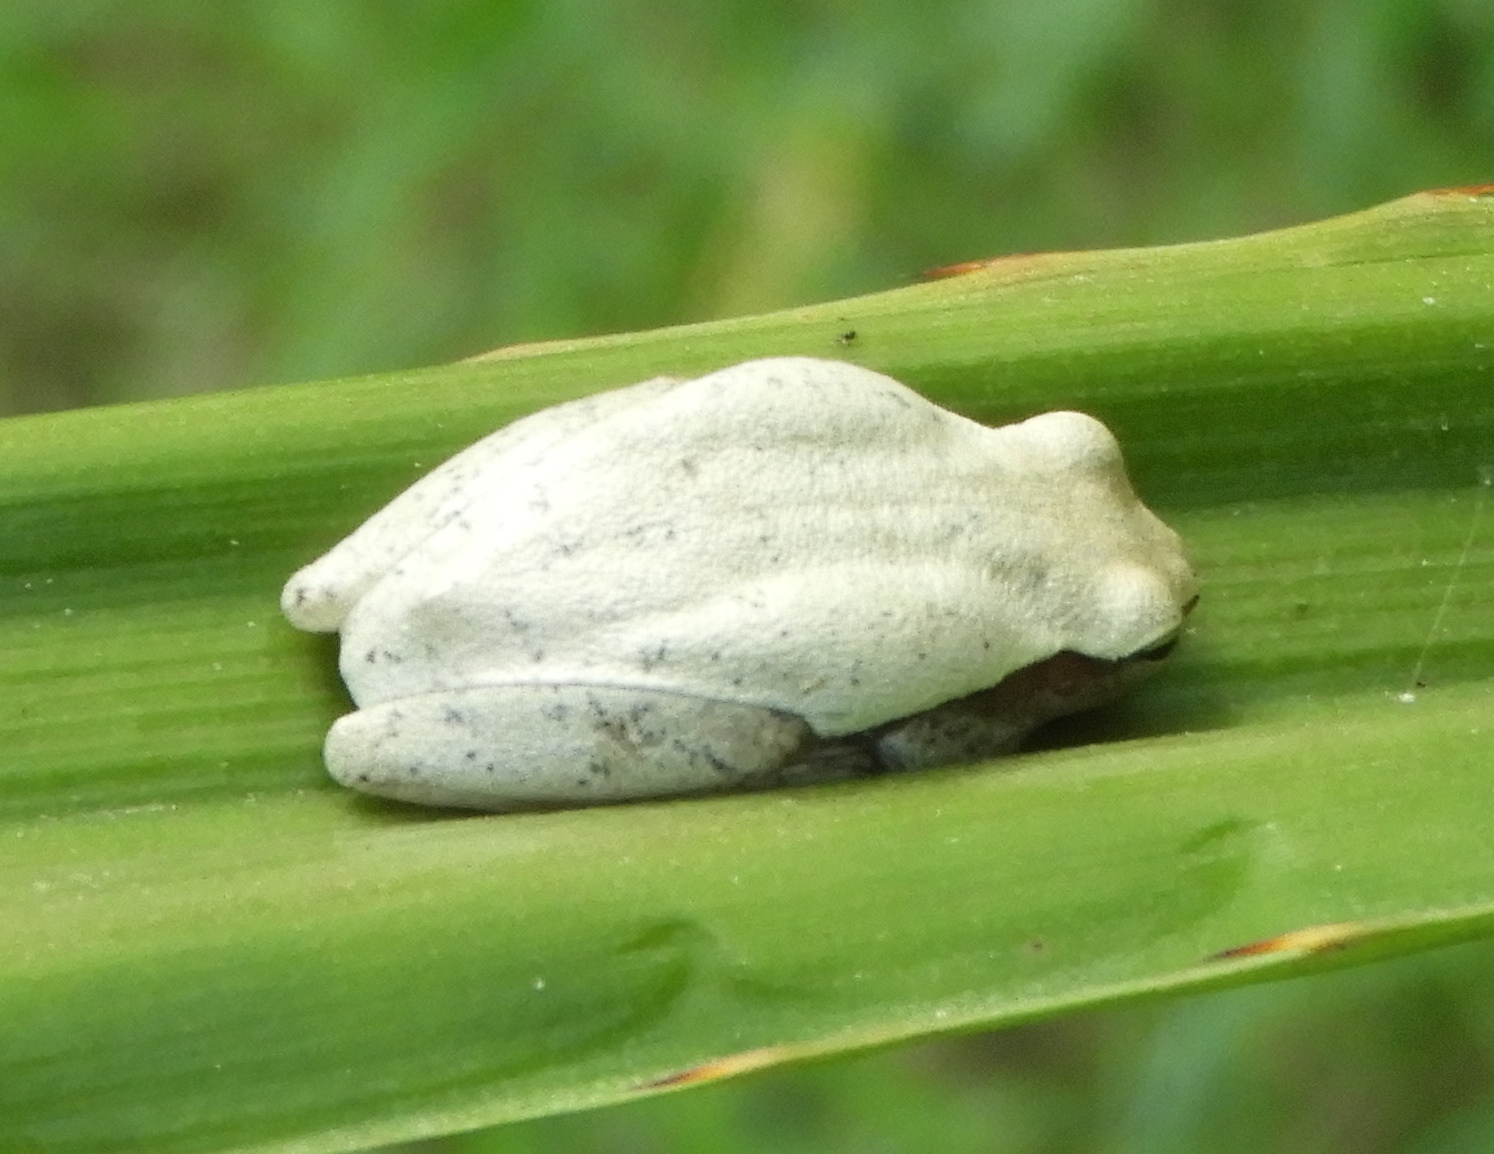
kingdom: Animalia
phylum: Chordata
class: Amphibia
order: Anura
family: Hylidae
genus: Tlalocohyla
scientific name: Tlalocohyla smithii
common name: Dwarf mexican treefrog
